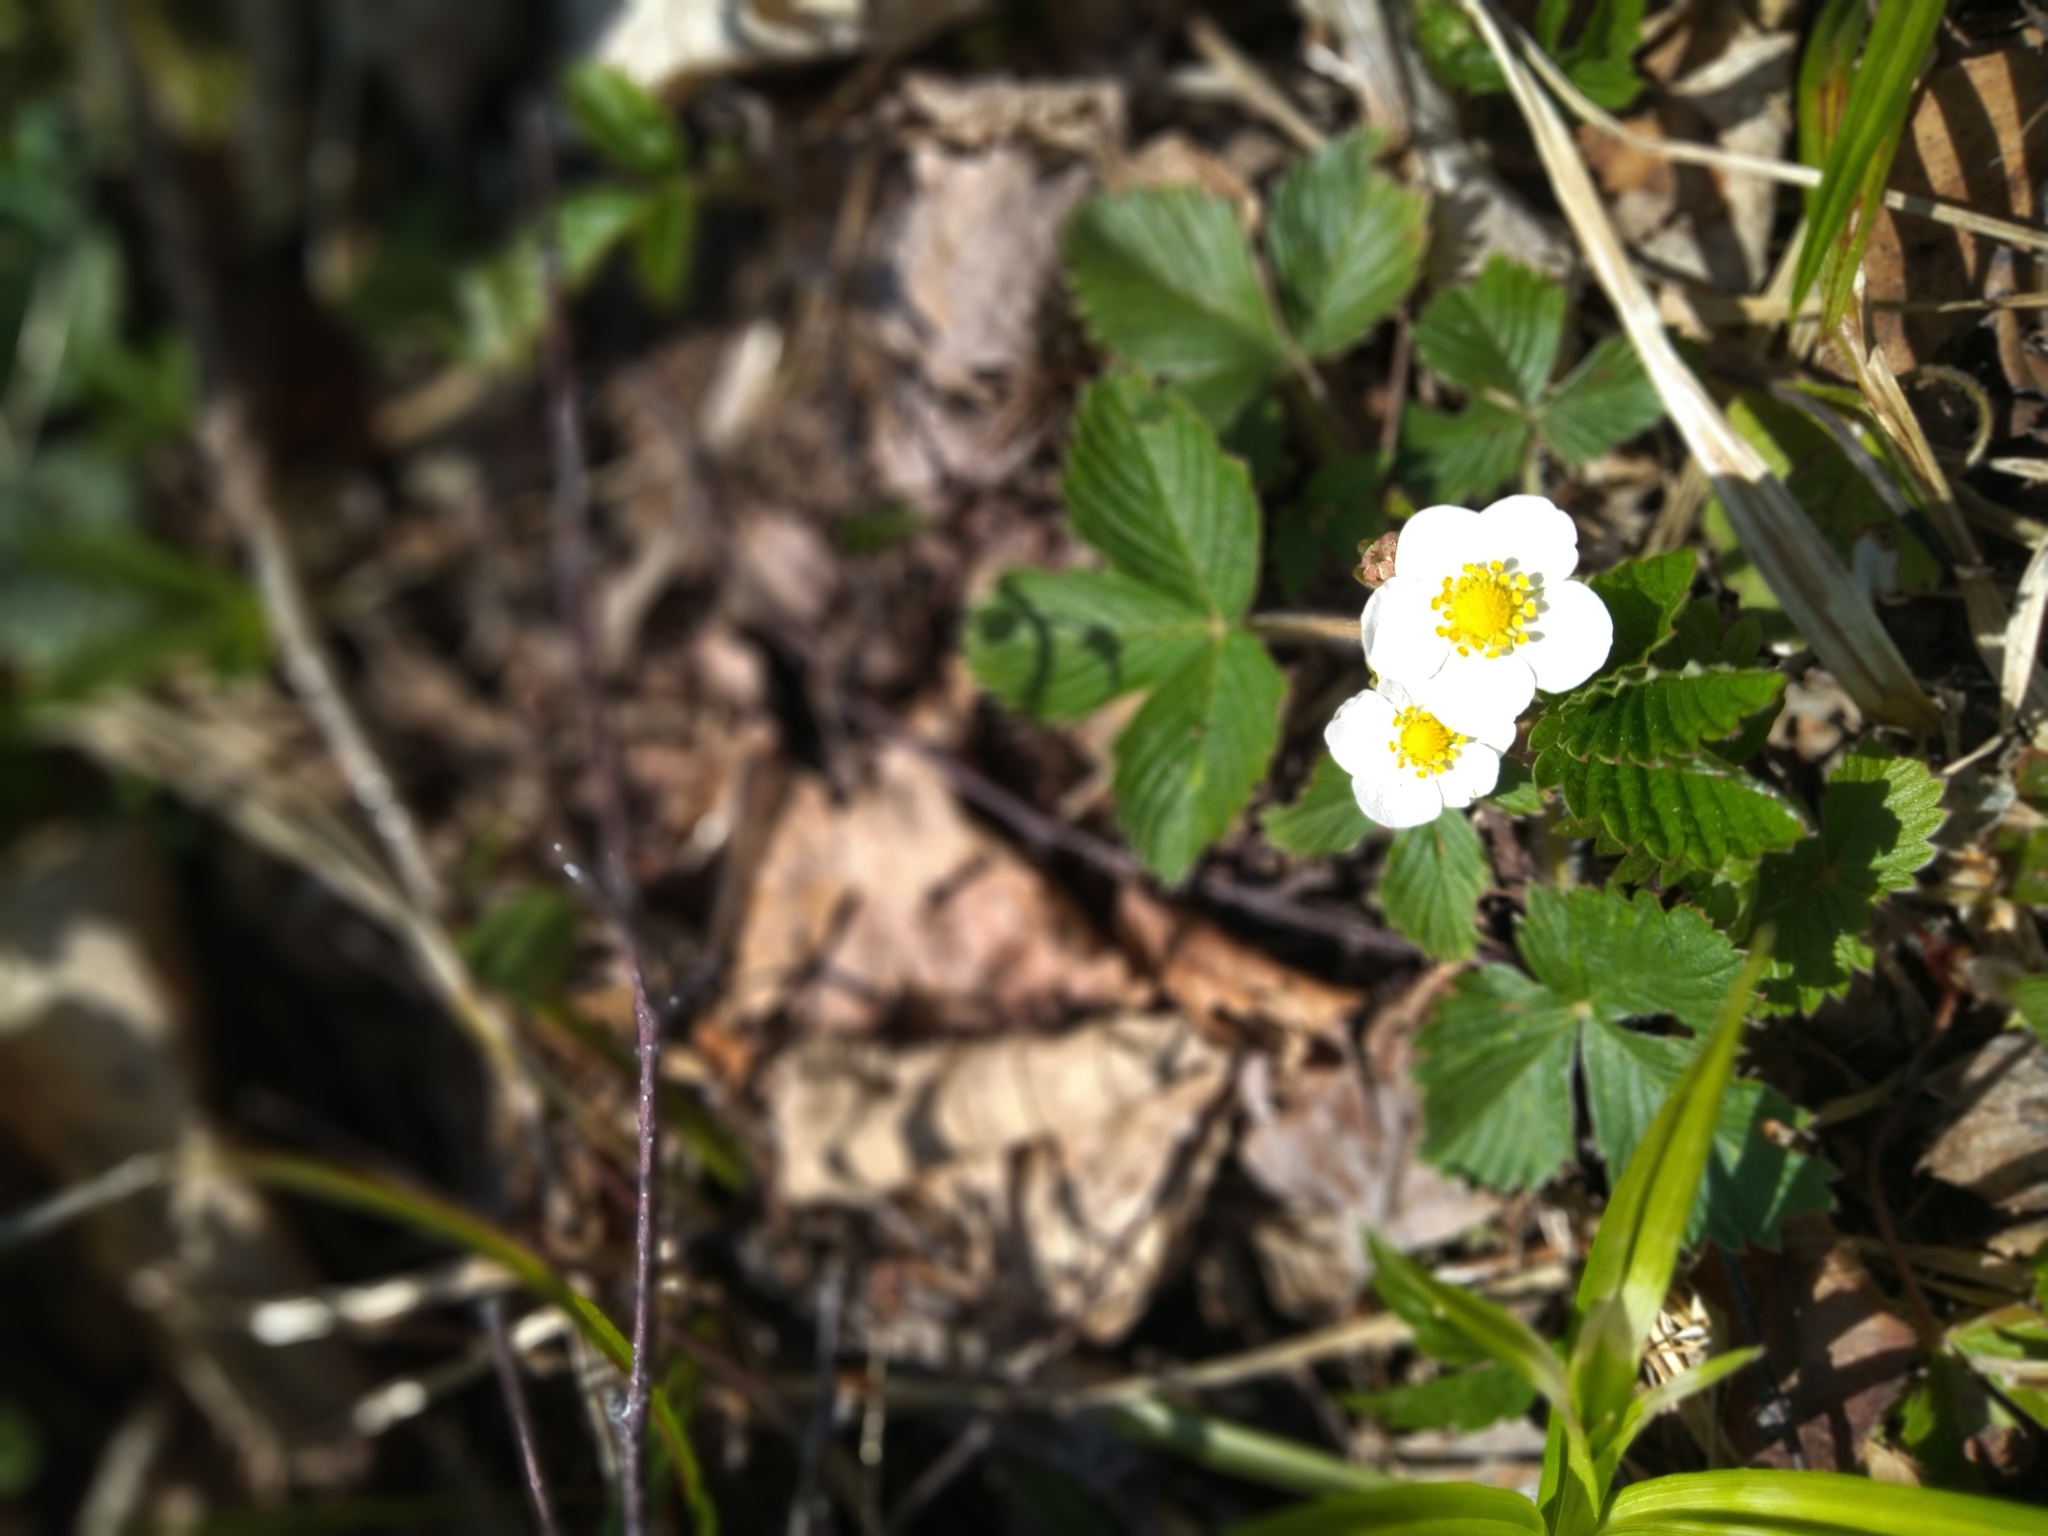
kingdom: Plantae
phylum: Tracheophyta
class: Magnoliopsida
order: Rosales
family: Rosaceae
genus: Fragaria
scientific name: Fragaria vesca
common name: Wild strawberry
